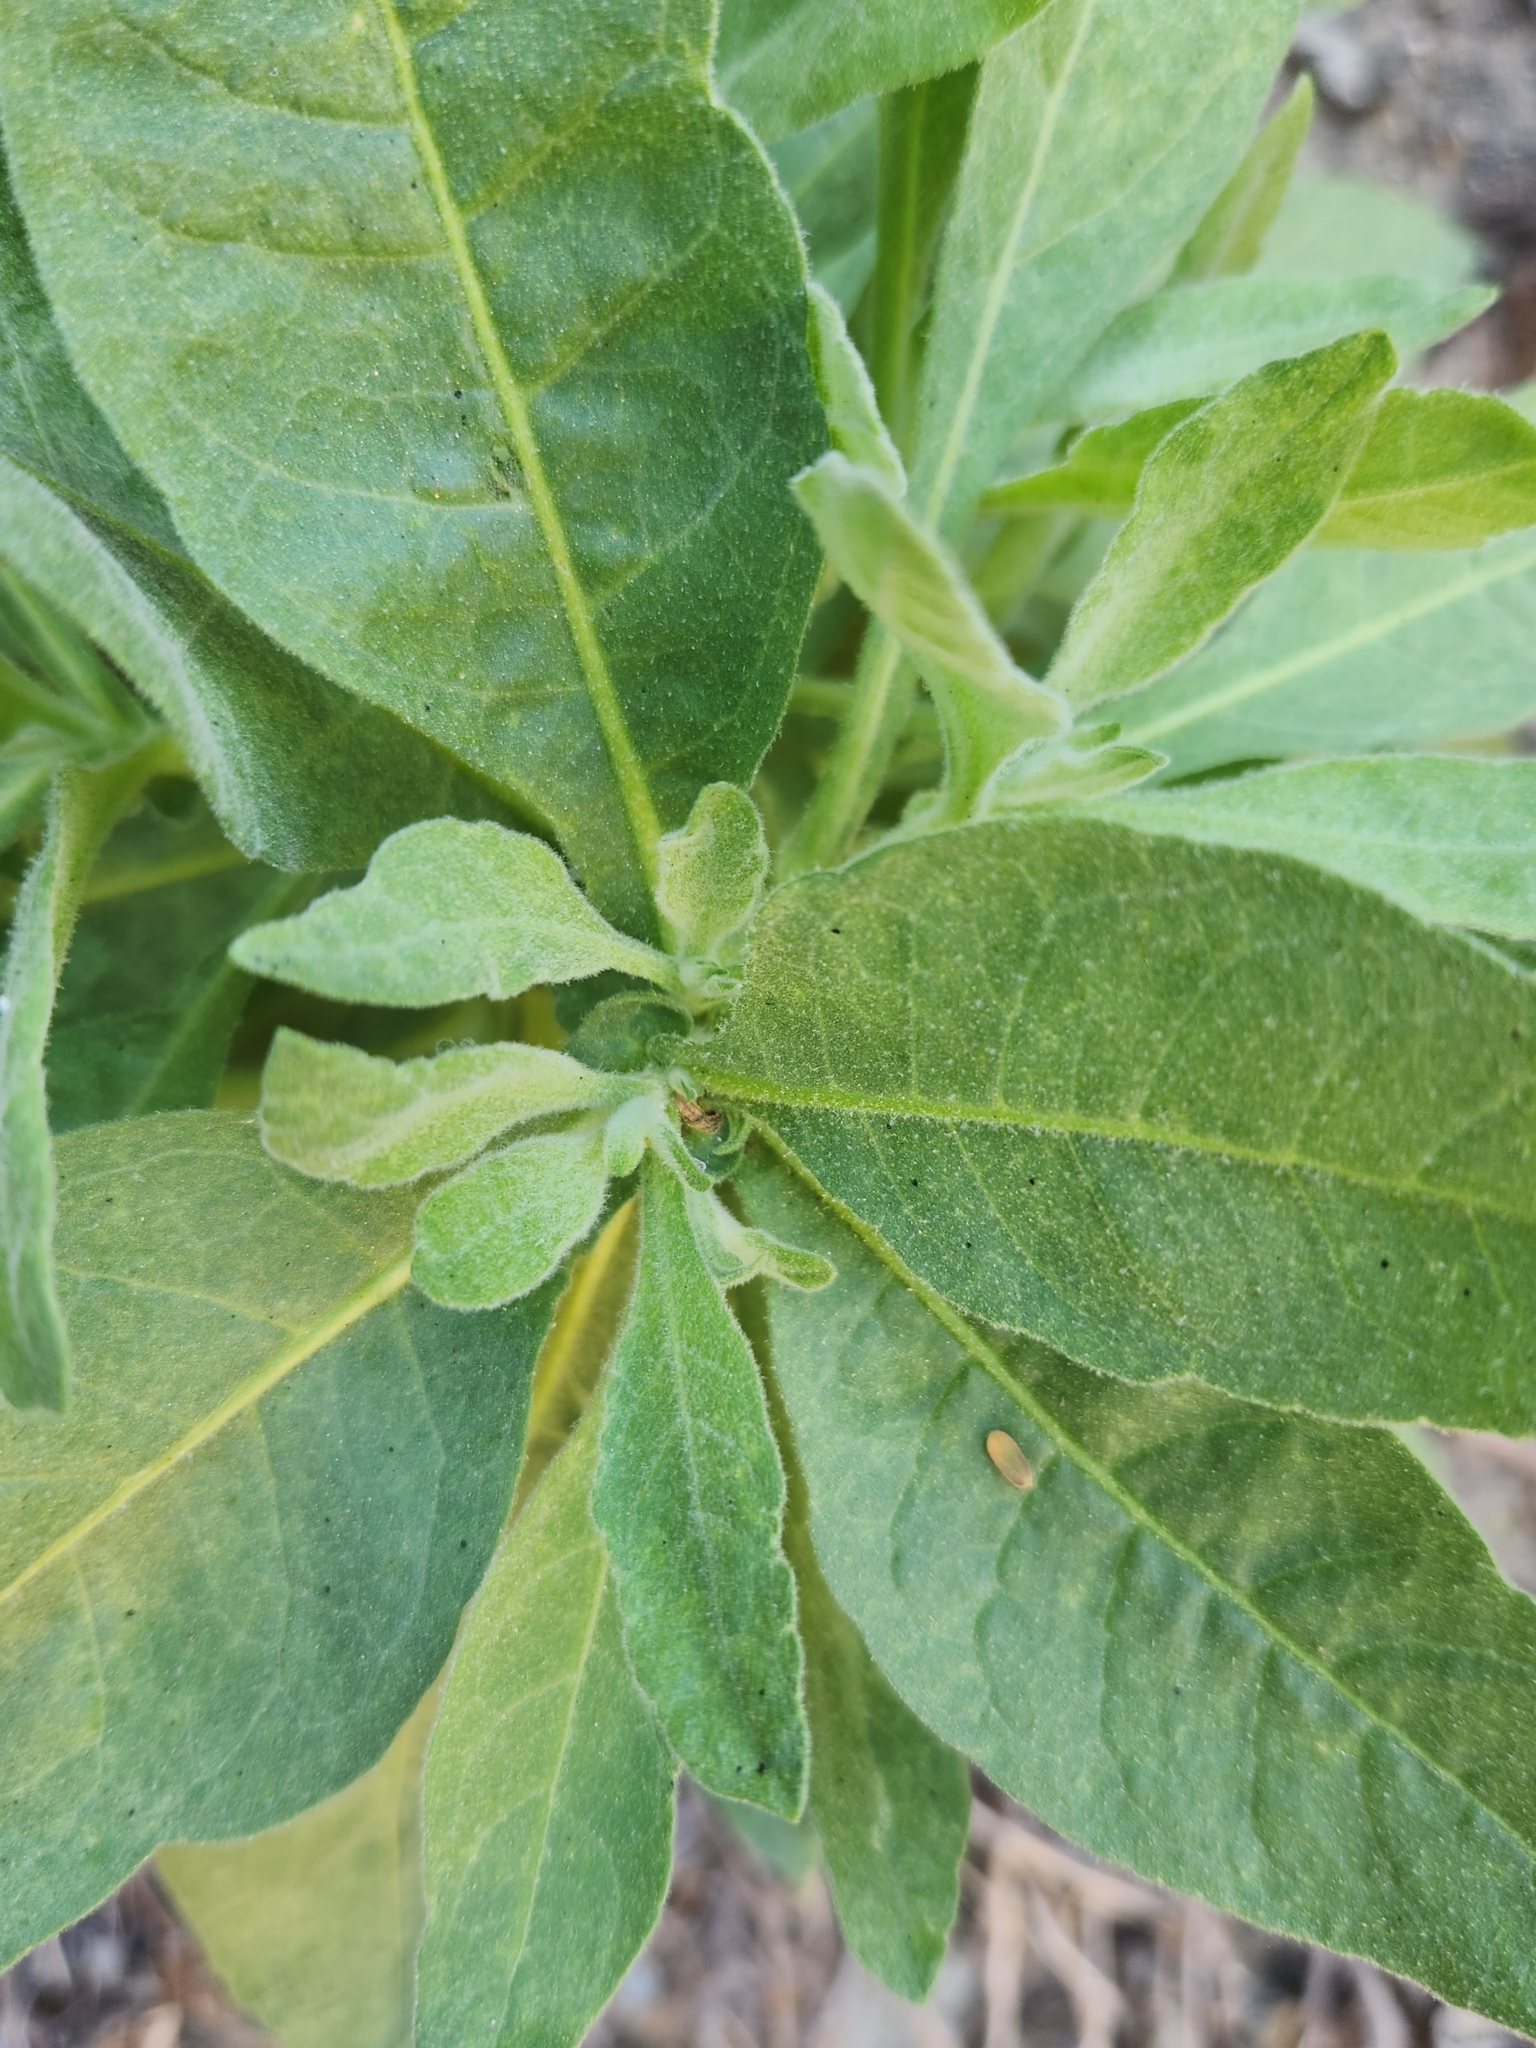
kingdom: Plantae
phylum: Tracheophyta
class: Magnoliopsida
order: Solanales
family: Solanaceae
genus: Nicotiana
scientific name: Nicotiana obtusifolia
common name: Desert tobacco
